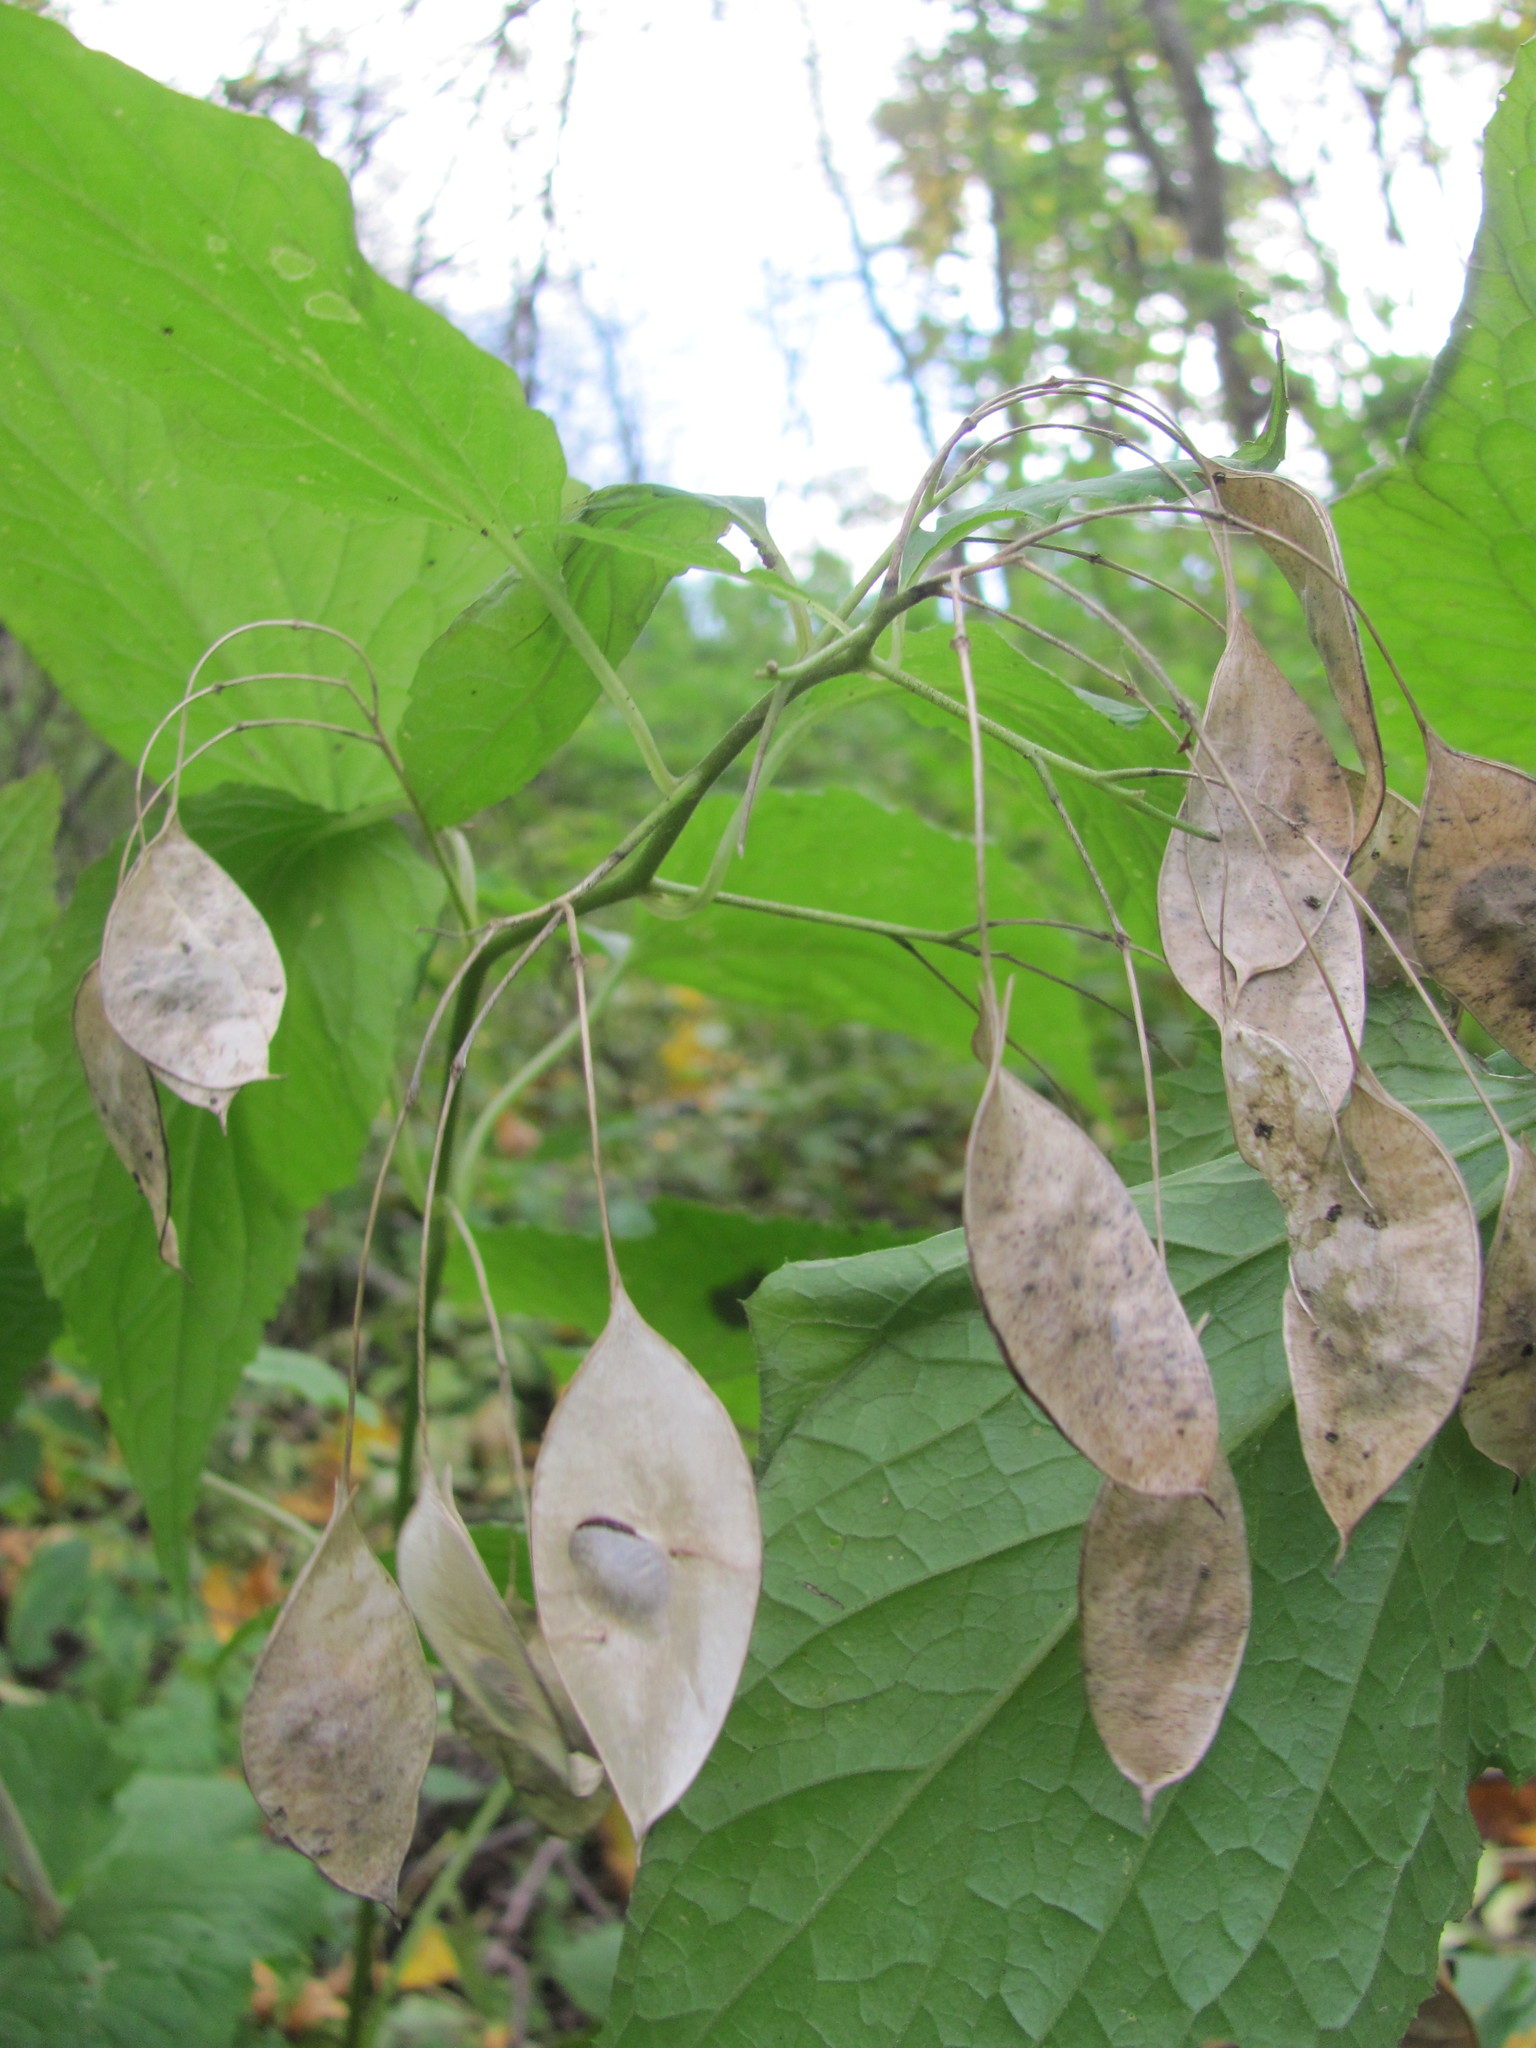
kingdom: Plantae
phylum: Tracheophyta
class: Magnoliopsida
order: Brassicales
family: Brassicaceae
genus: Lunaria
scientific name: Lunaria rediviva
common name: Perennial honesty
